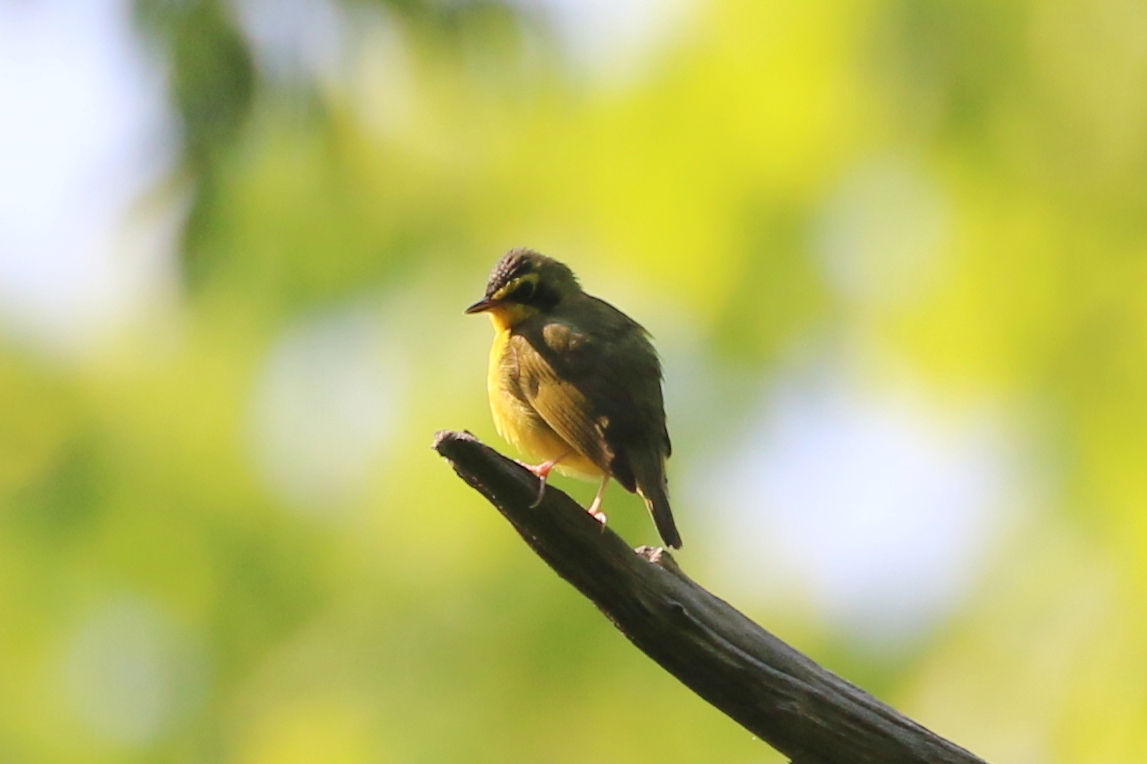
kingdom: Animalia
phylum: Chordata
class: Aves
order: Passeriformes
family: Parulidae
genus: Geothlypis
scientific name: Geothlypis formosa
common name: Kentucky warbler
